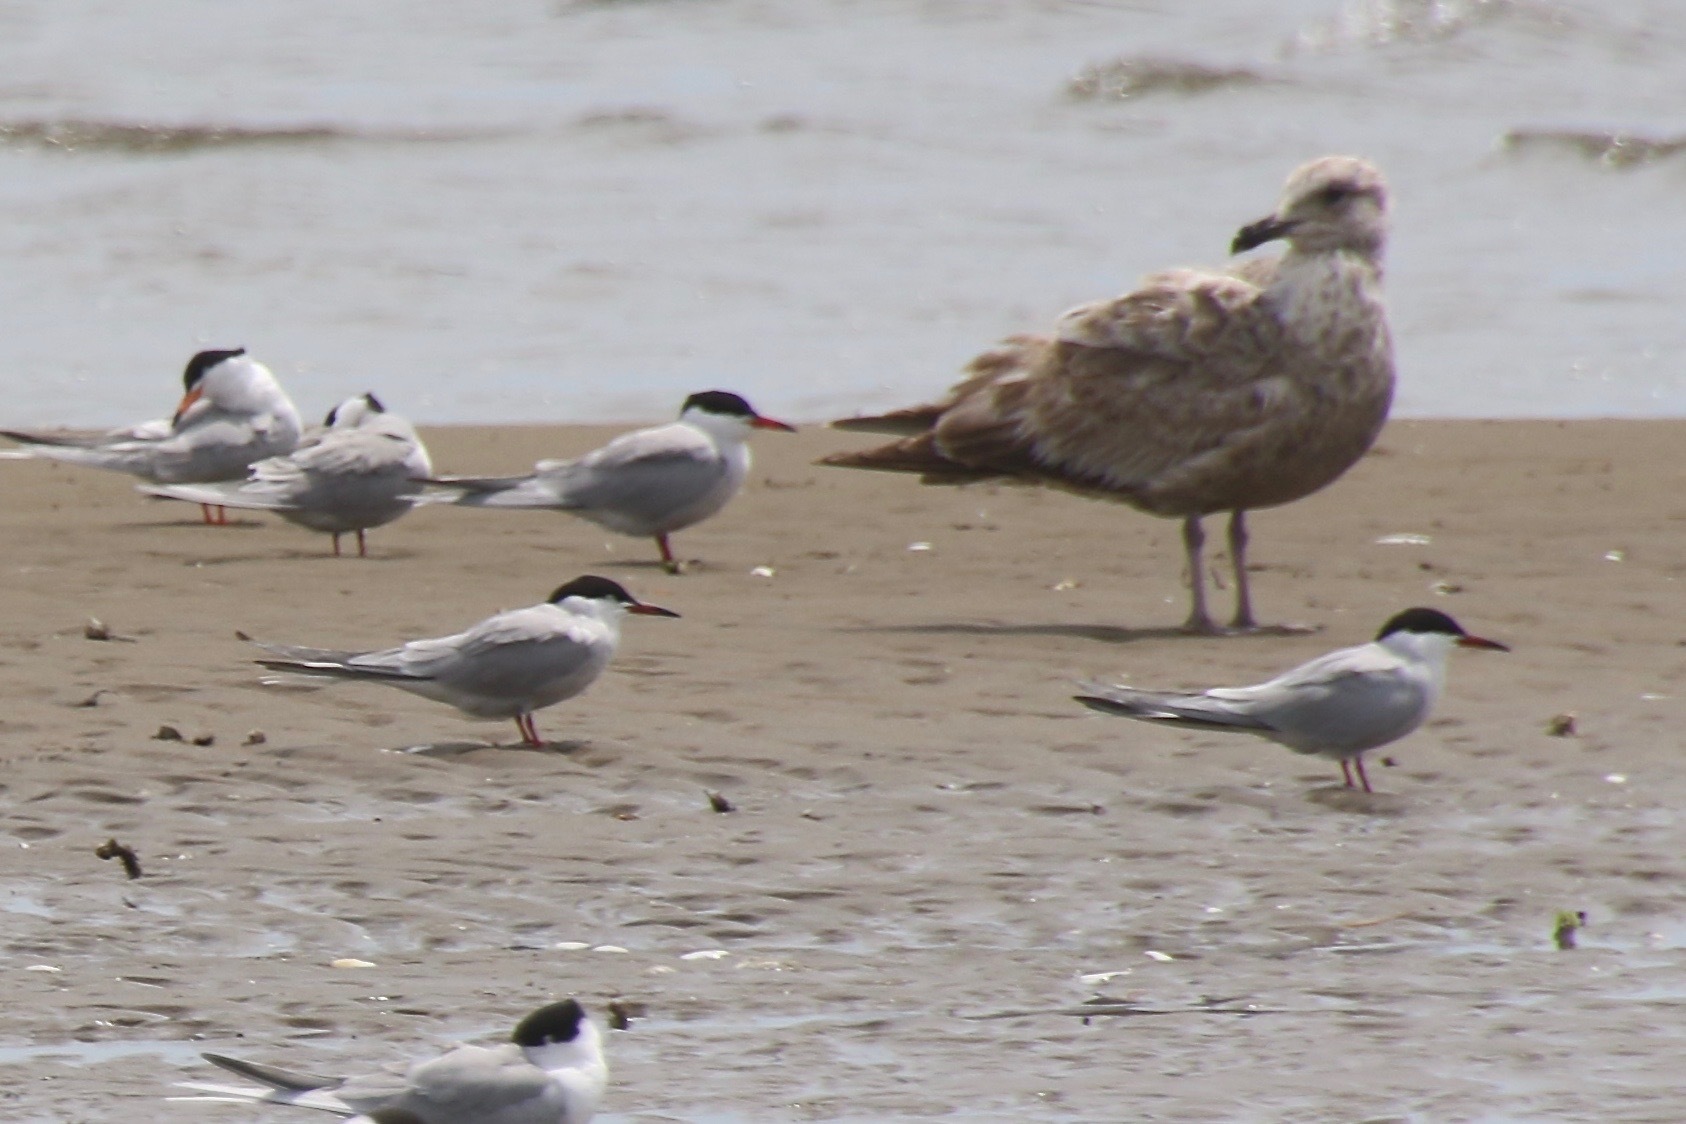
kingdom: Animalia
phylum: Chordata
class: Aves
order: Charadriiformes
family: Laridae
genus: Sterna
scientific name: Sterna hirundo
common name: Common tern
